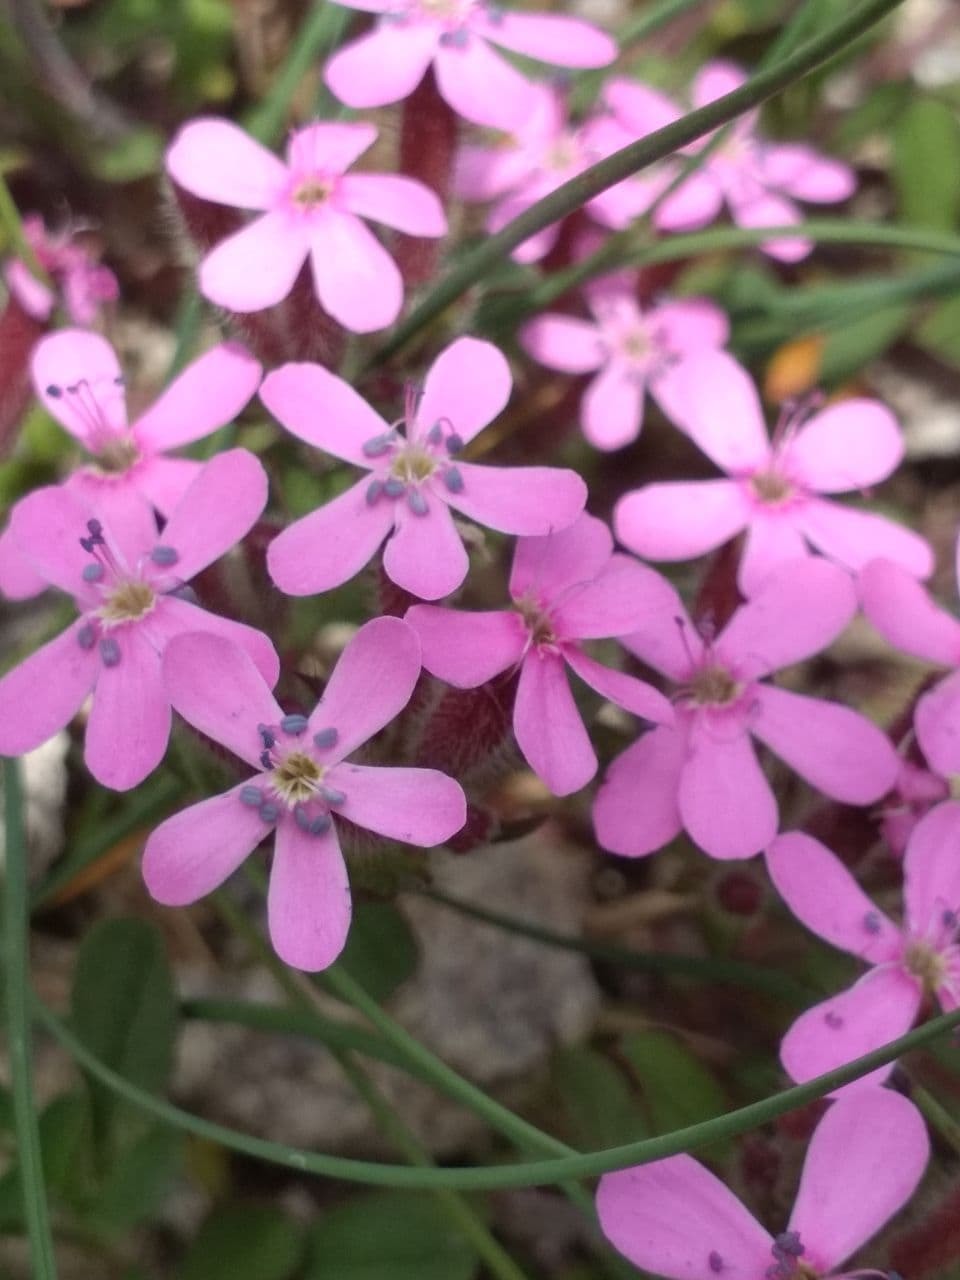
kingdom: Plantae
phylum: Tracheophyta
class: Magnoliopsida
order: Caryophyllales
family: Caryophyllaceae
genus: Saponaria
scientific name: Saponaria ocymoides
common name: Rock soapwort
